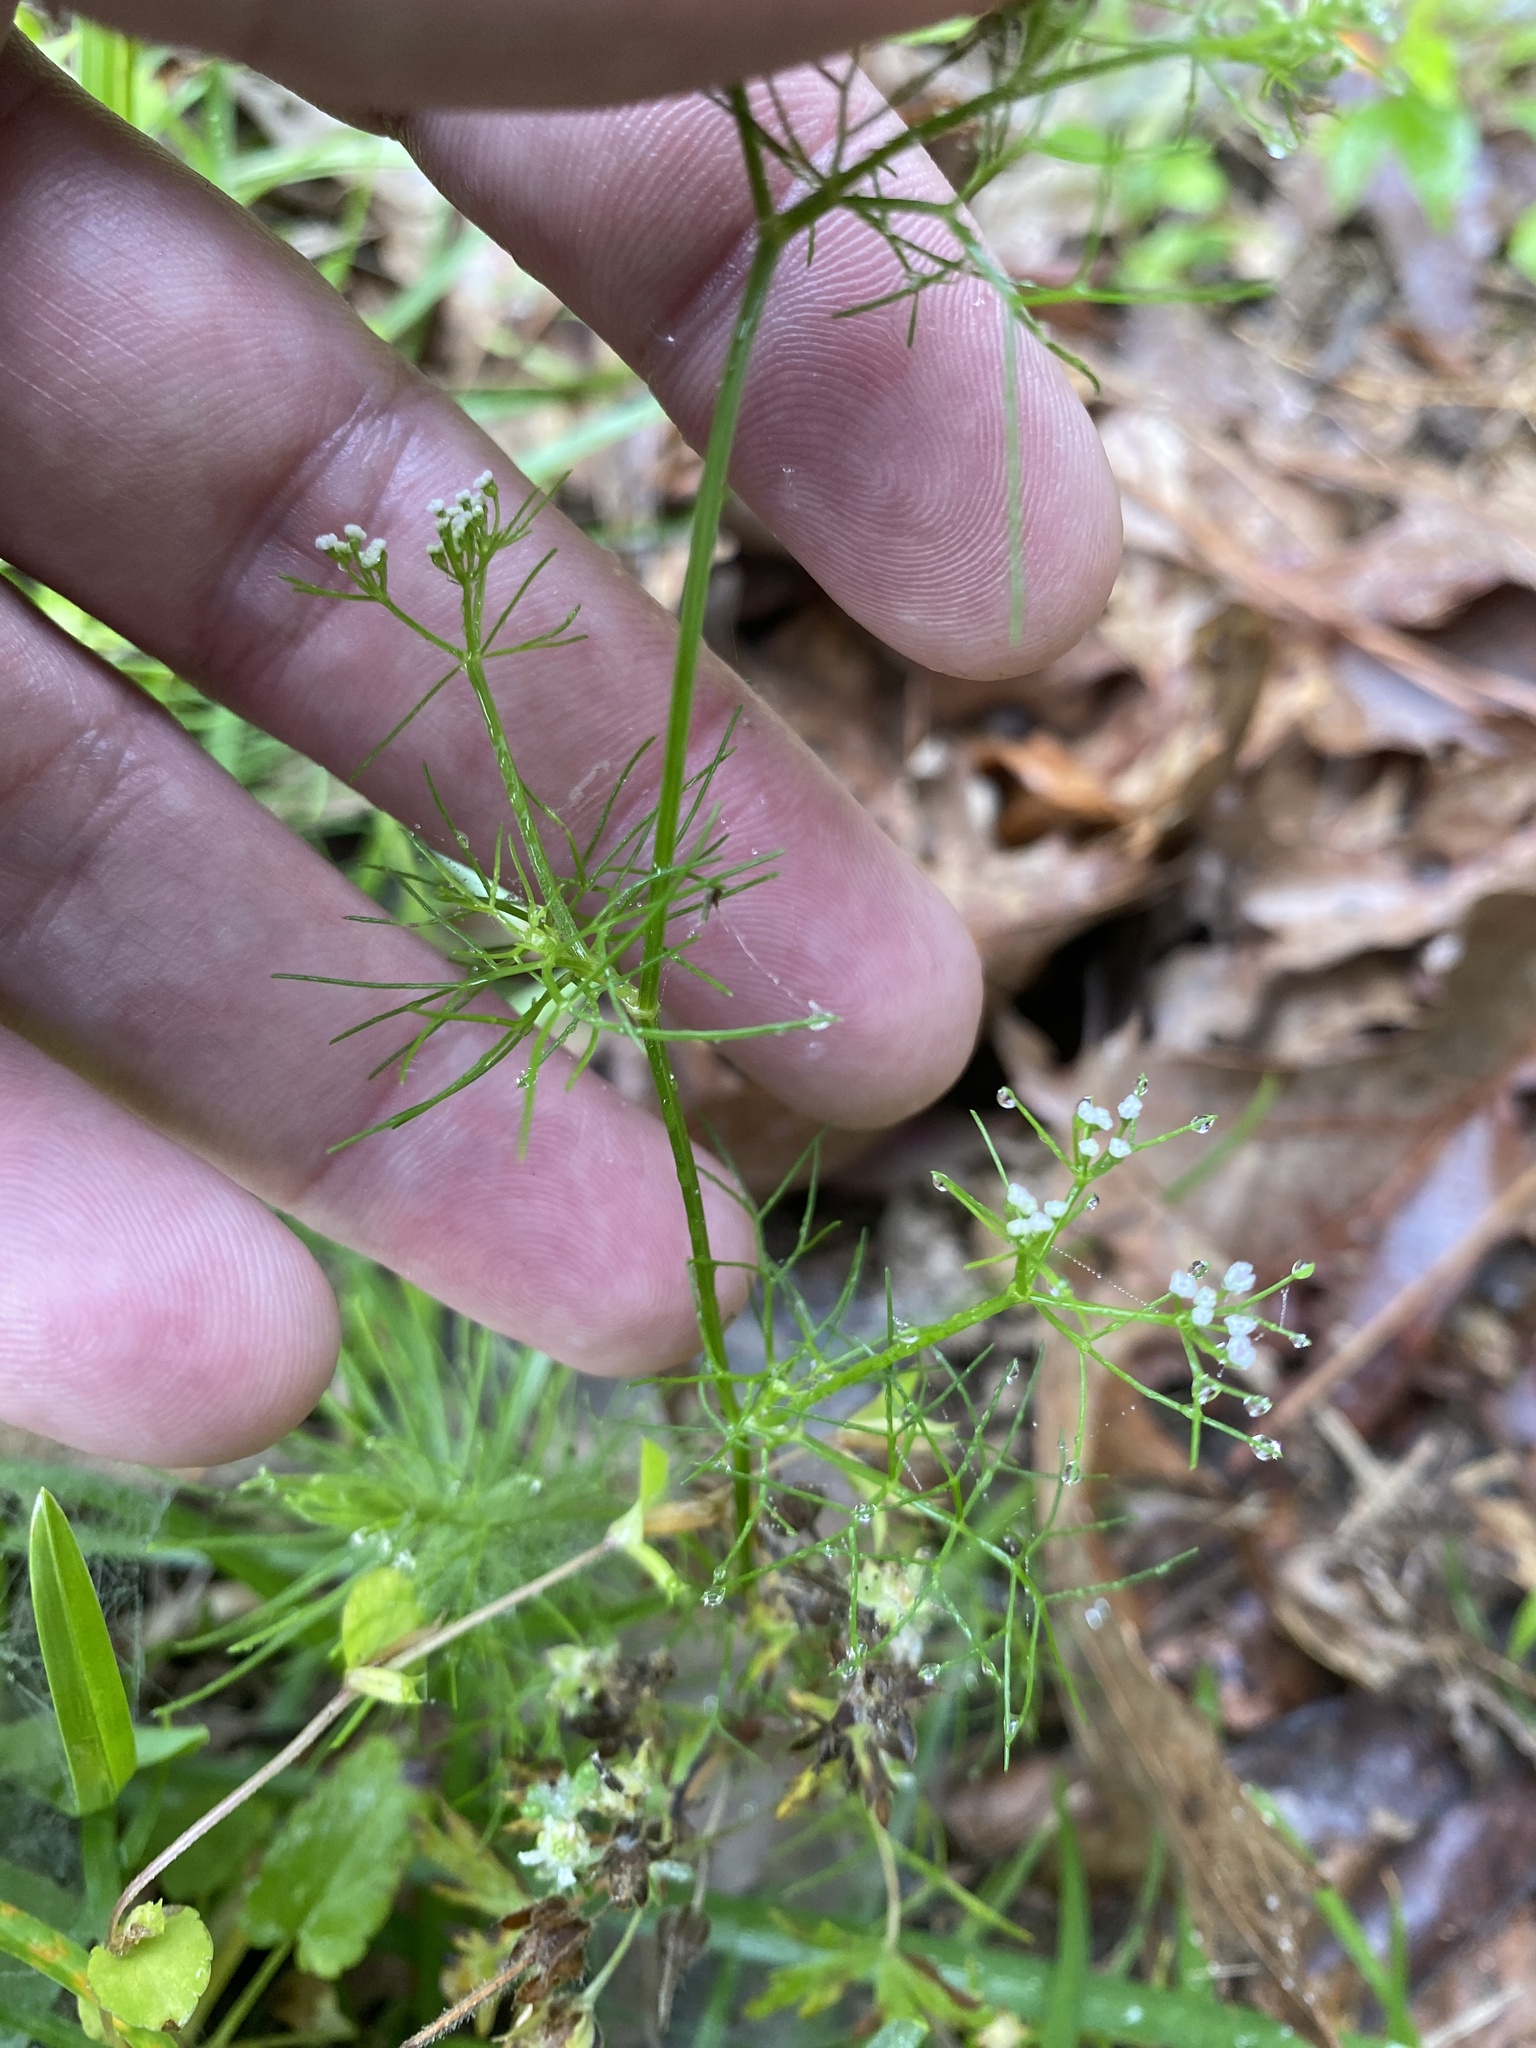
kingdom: Plantae
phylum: Tracheophyta
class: Magnoliopsida
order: Apiales
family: Apiaceae
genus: Ptilimnium
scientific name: Ptilimnium capillaceum
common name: Herbwilliam
